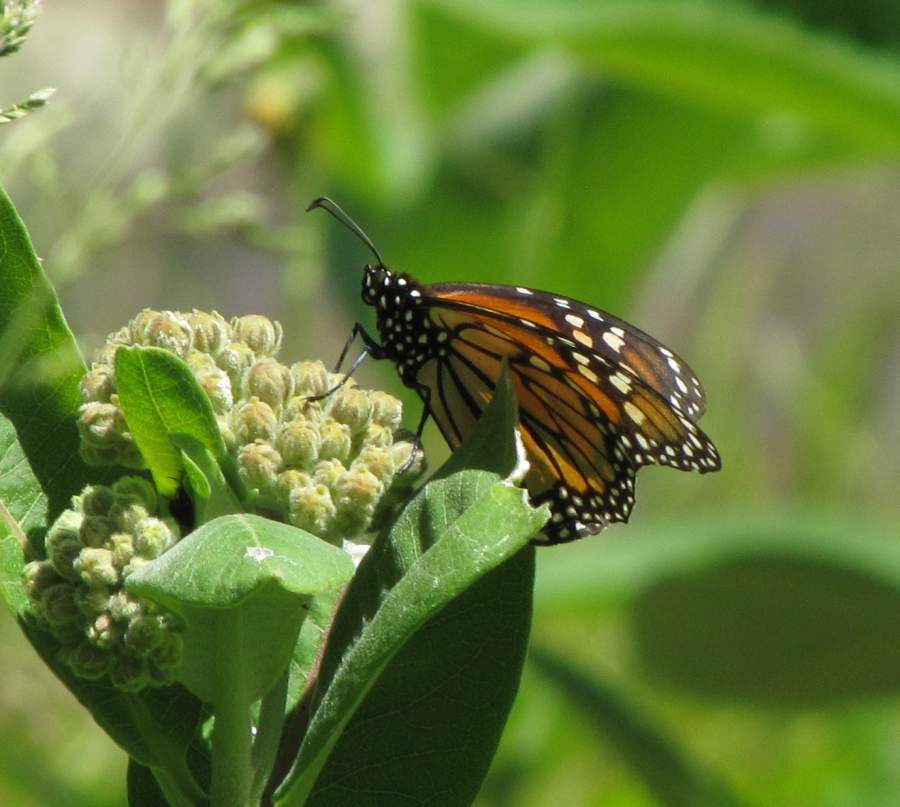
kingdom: Animalia
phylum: Arthropoda
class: Insecta
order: Lepidoptera
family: Nymphalidae
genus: Danaus
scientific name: Danaus plexippus
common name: Monarch
